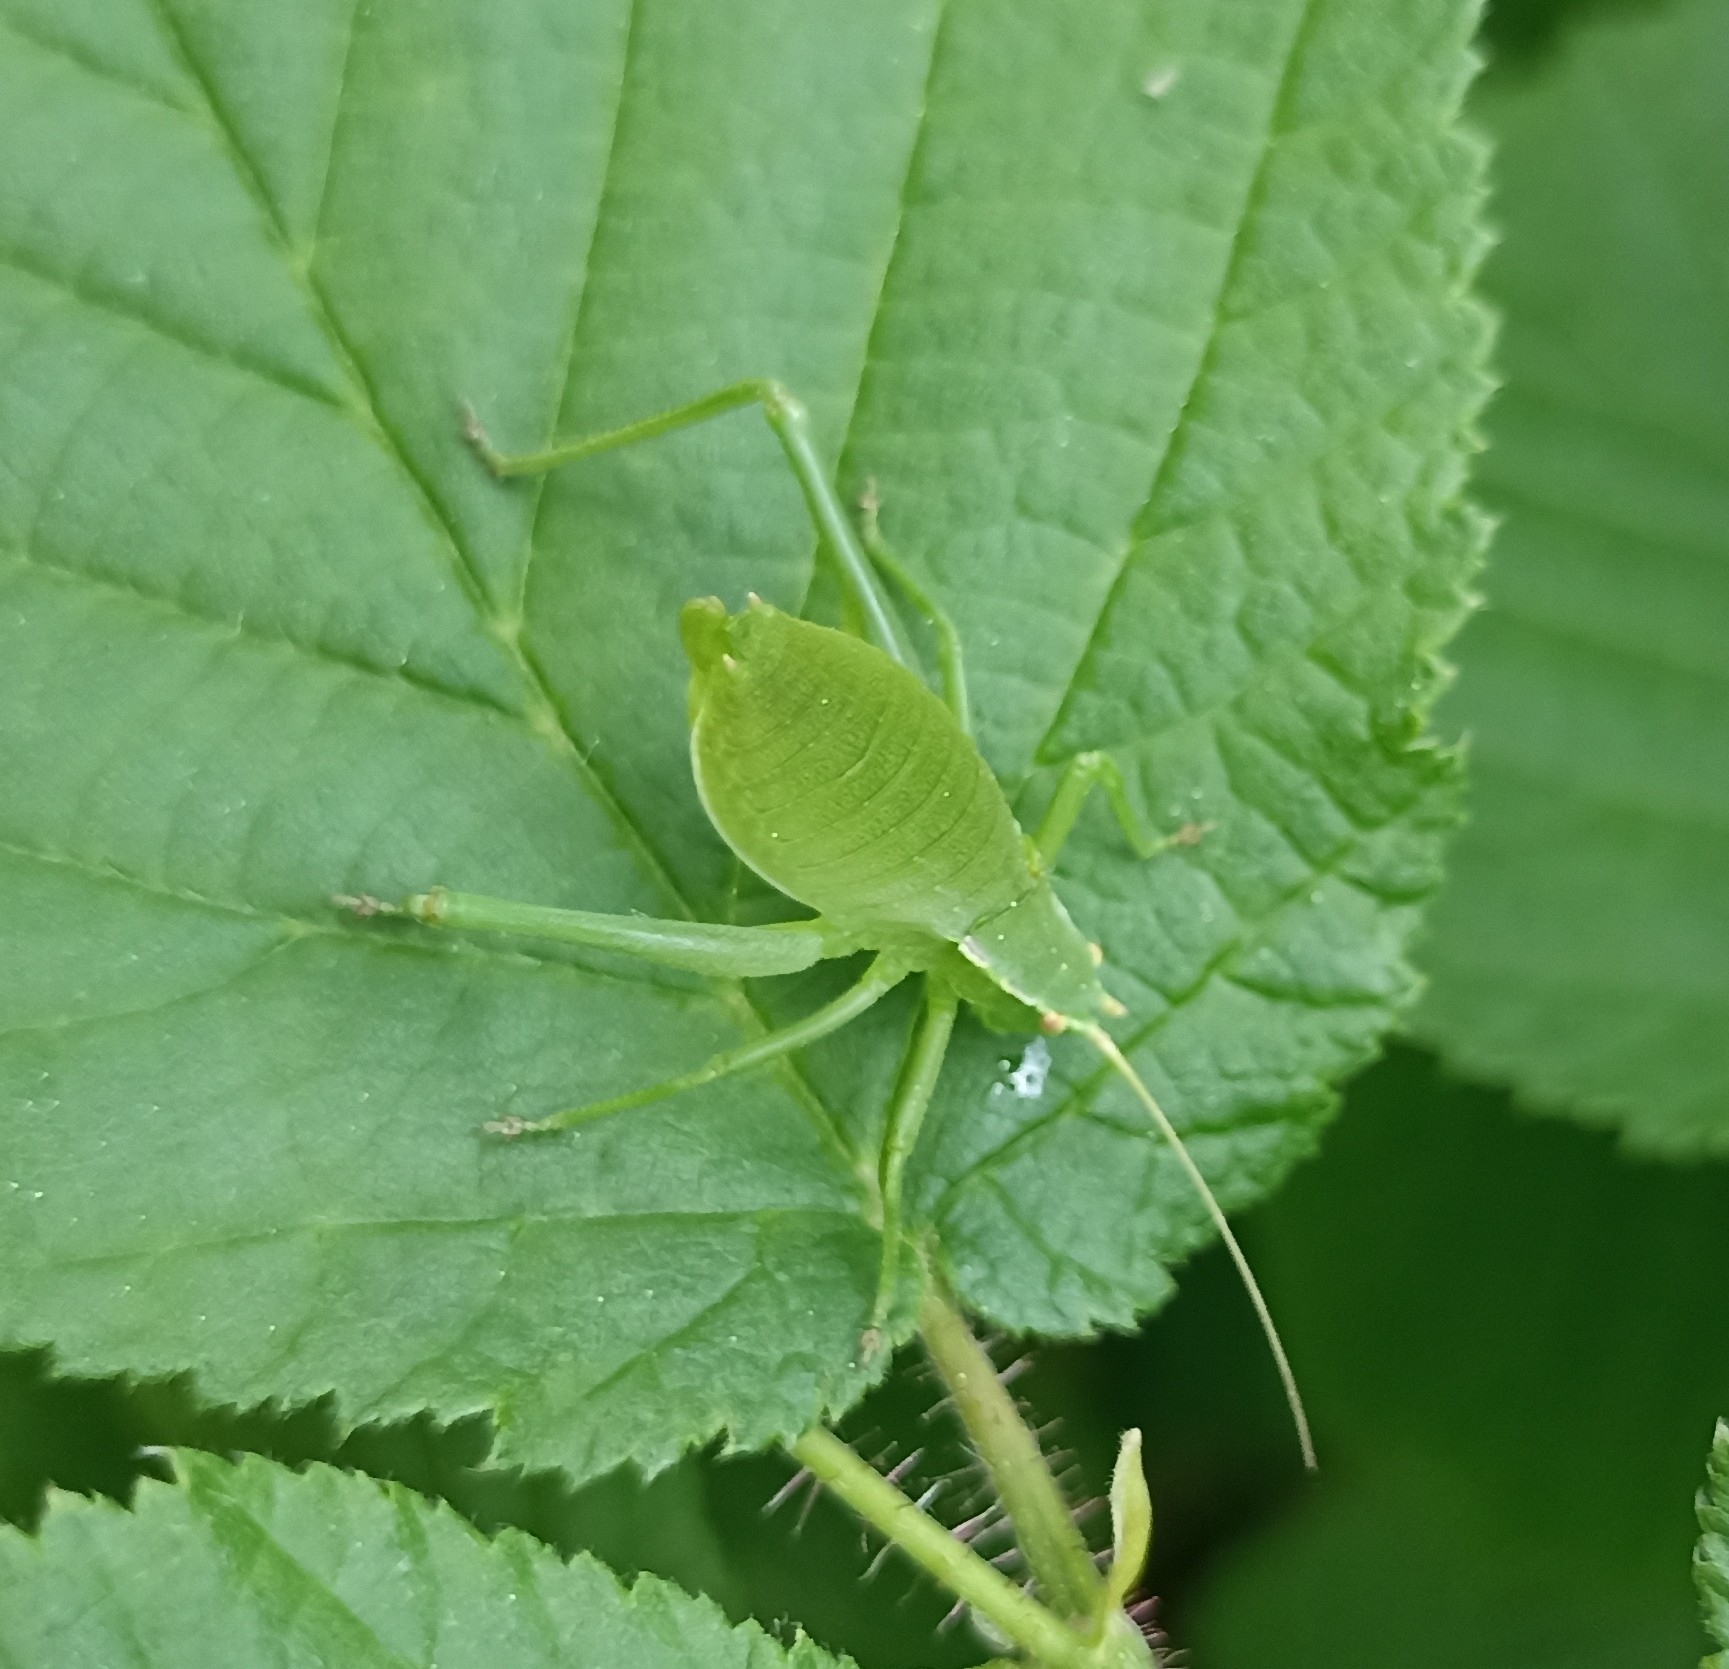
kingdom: Animalia
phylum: Arthropoda
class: Insecta
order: Orthoptera
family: Tettigoniidae
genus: Isophya
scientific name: Isophya pyrenaea
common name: Pyrenean plump bush-cricket
